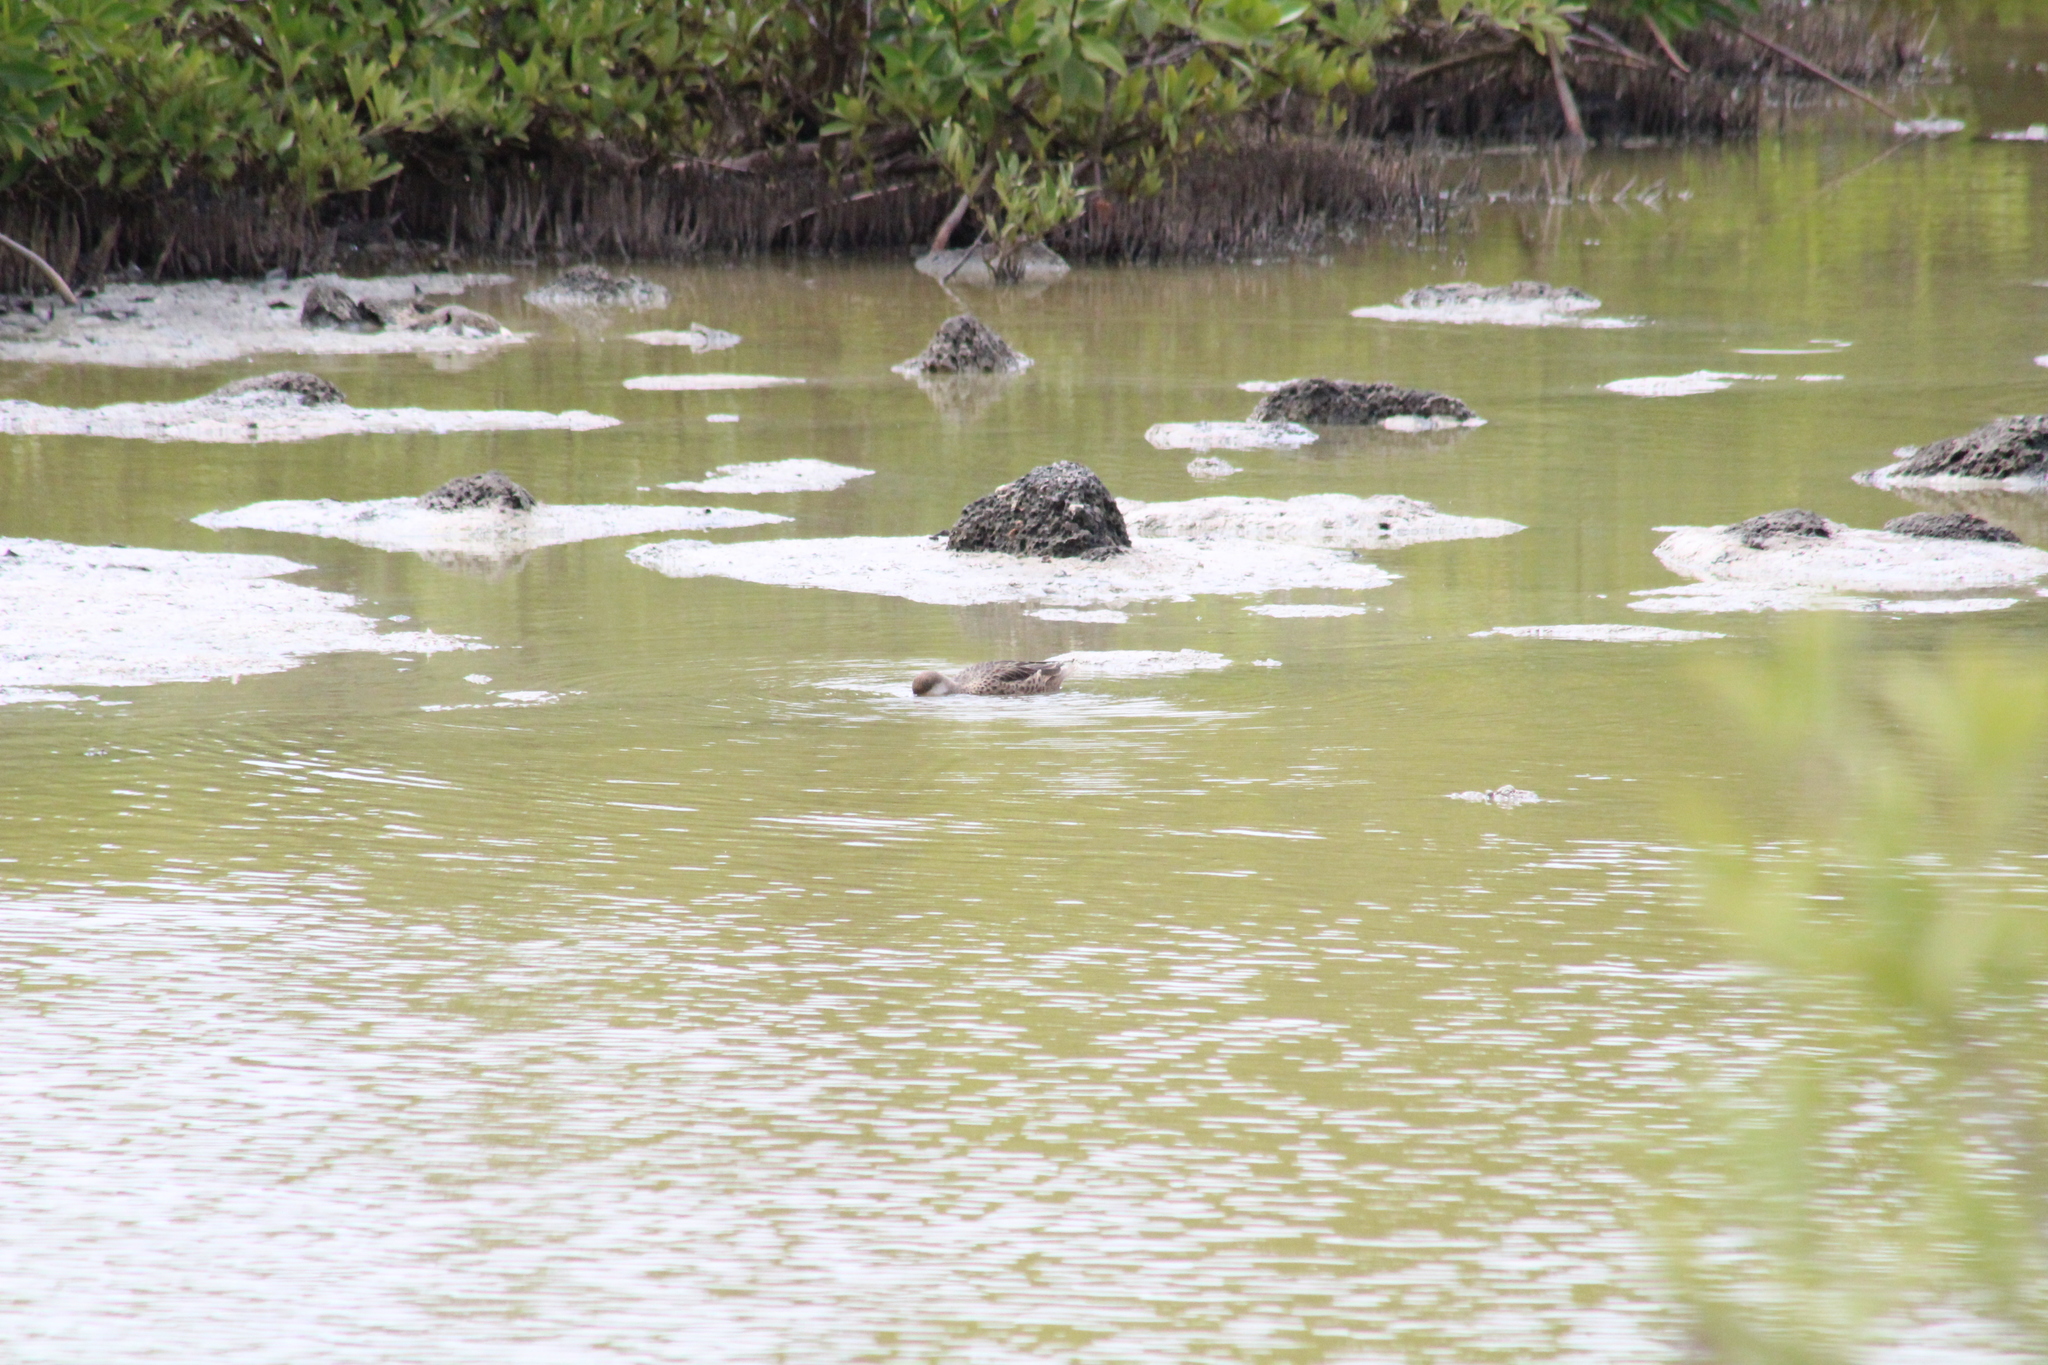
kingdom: Animalia
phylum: Chordata
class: Aves
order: Anseriformes
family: Anatidae
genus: Anas
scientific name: Anas bahamensis
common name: White-cheeked pintail
